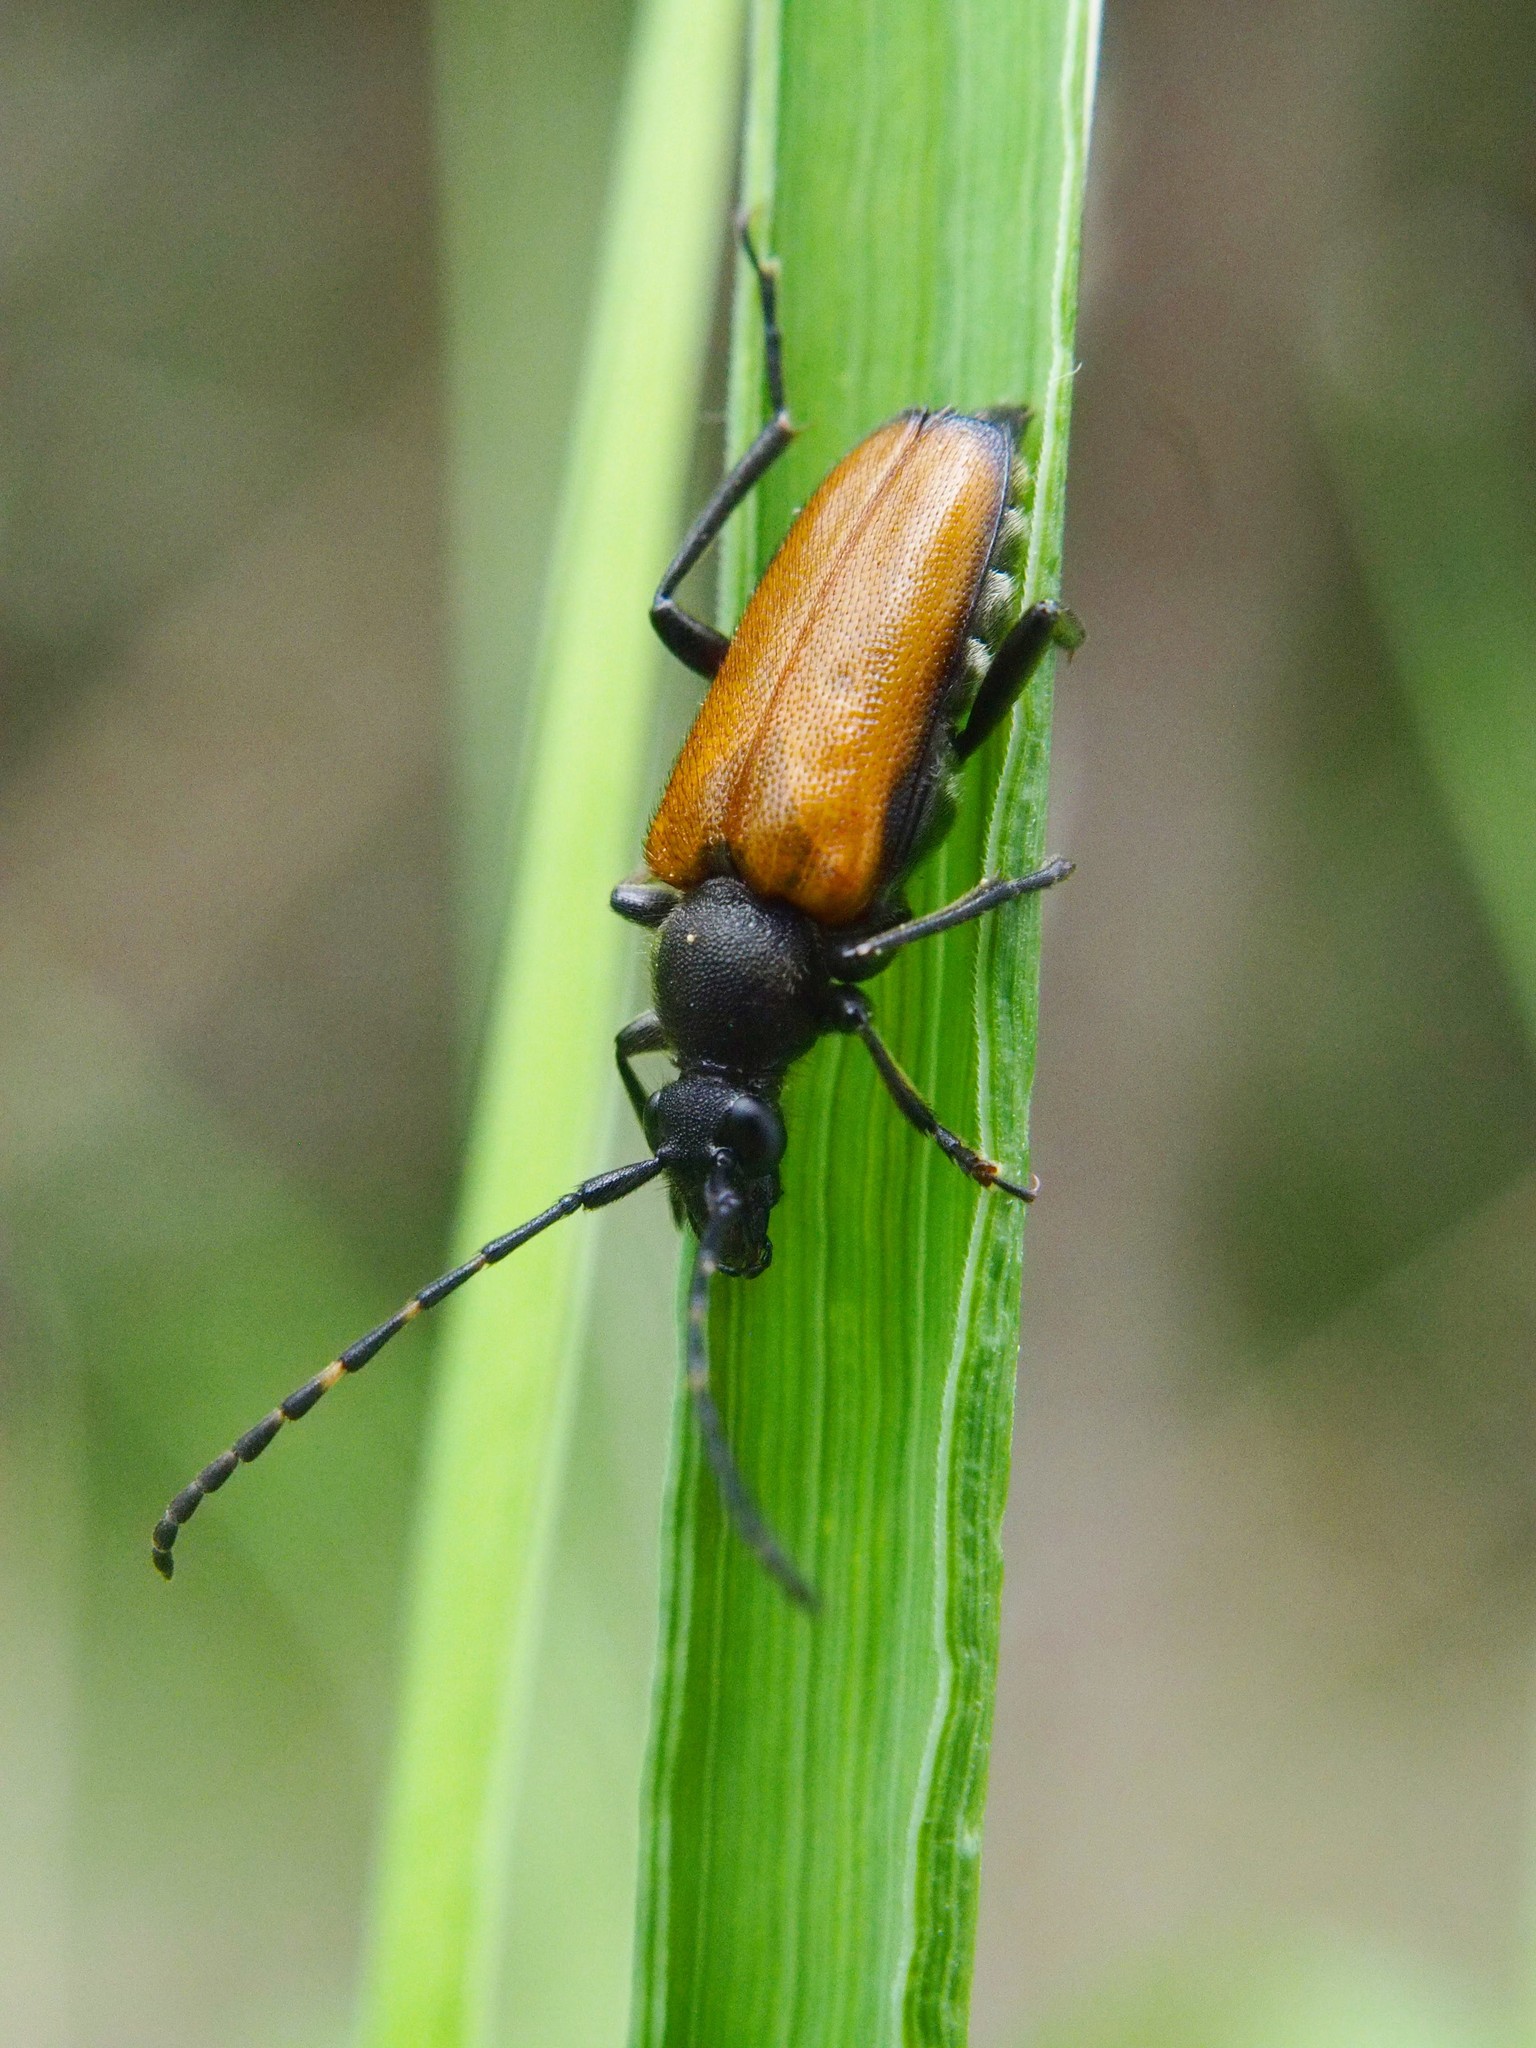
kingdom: Animalia
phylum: Arthropoda
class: Insecta
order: Coleoptera
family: Cerambycidae
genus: Paracorymbia
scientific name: Paracorymbia maculicornis
